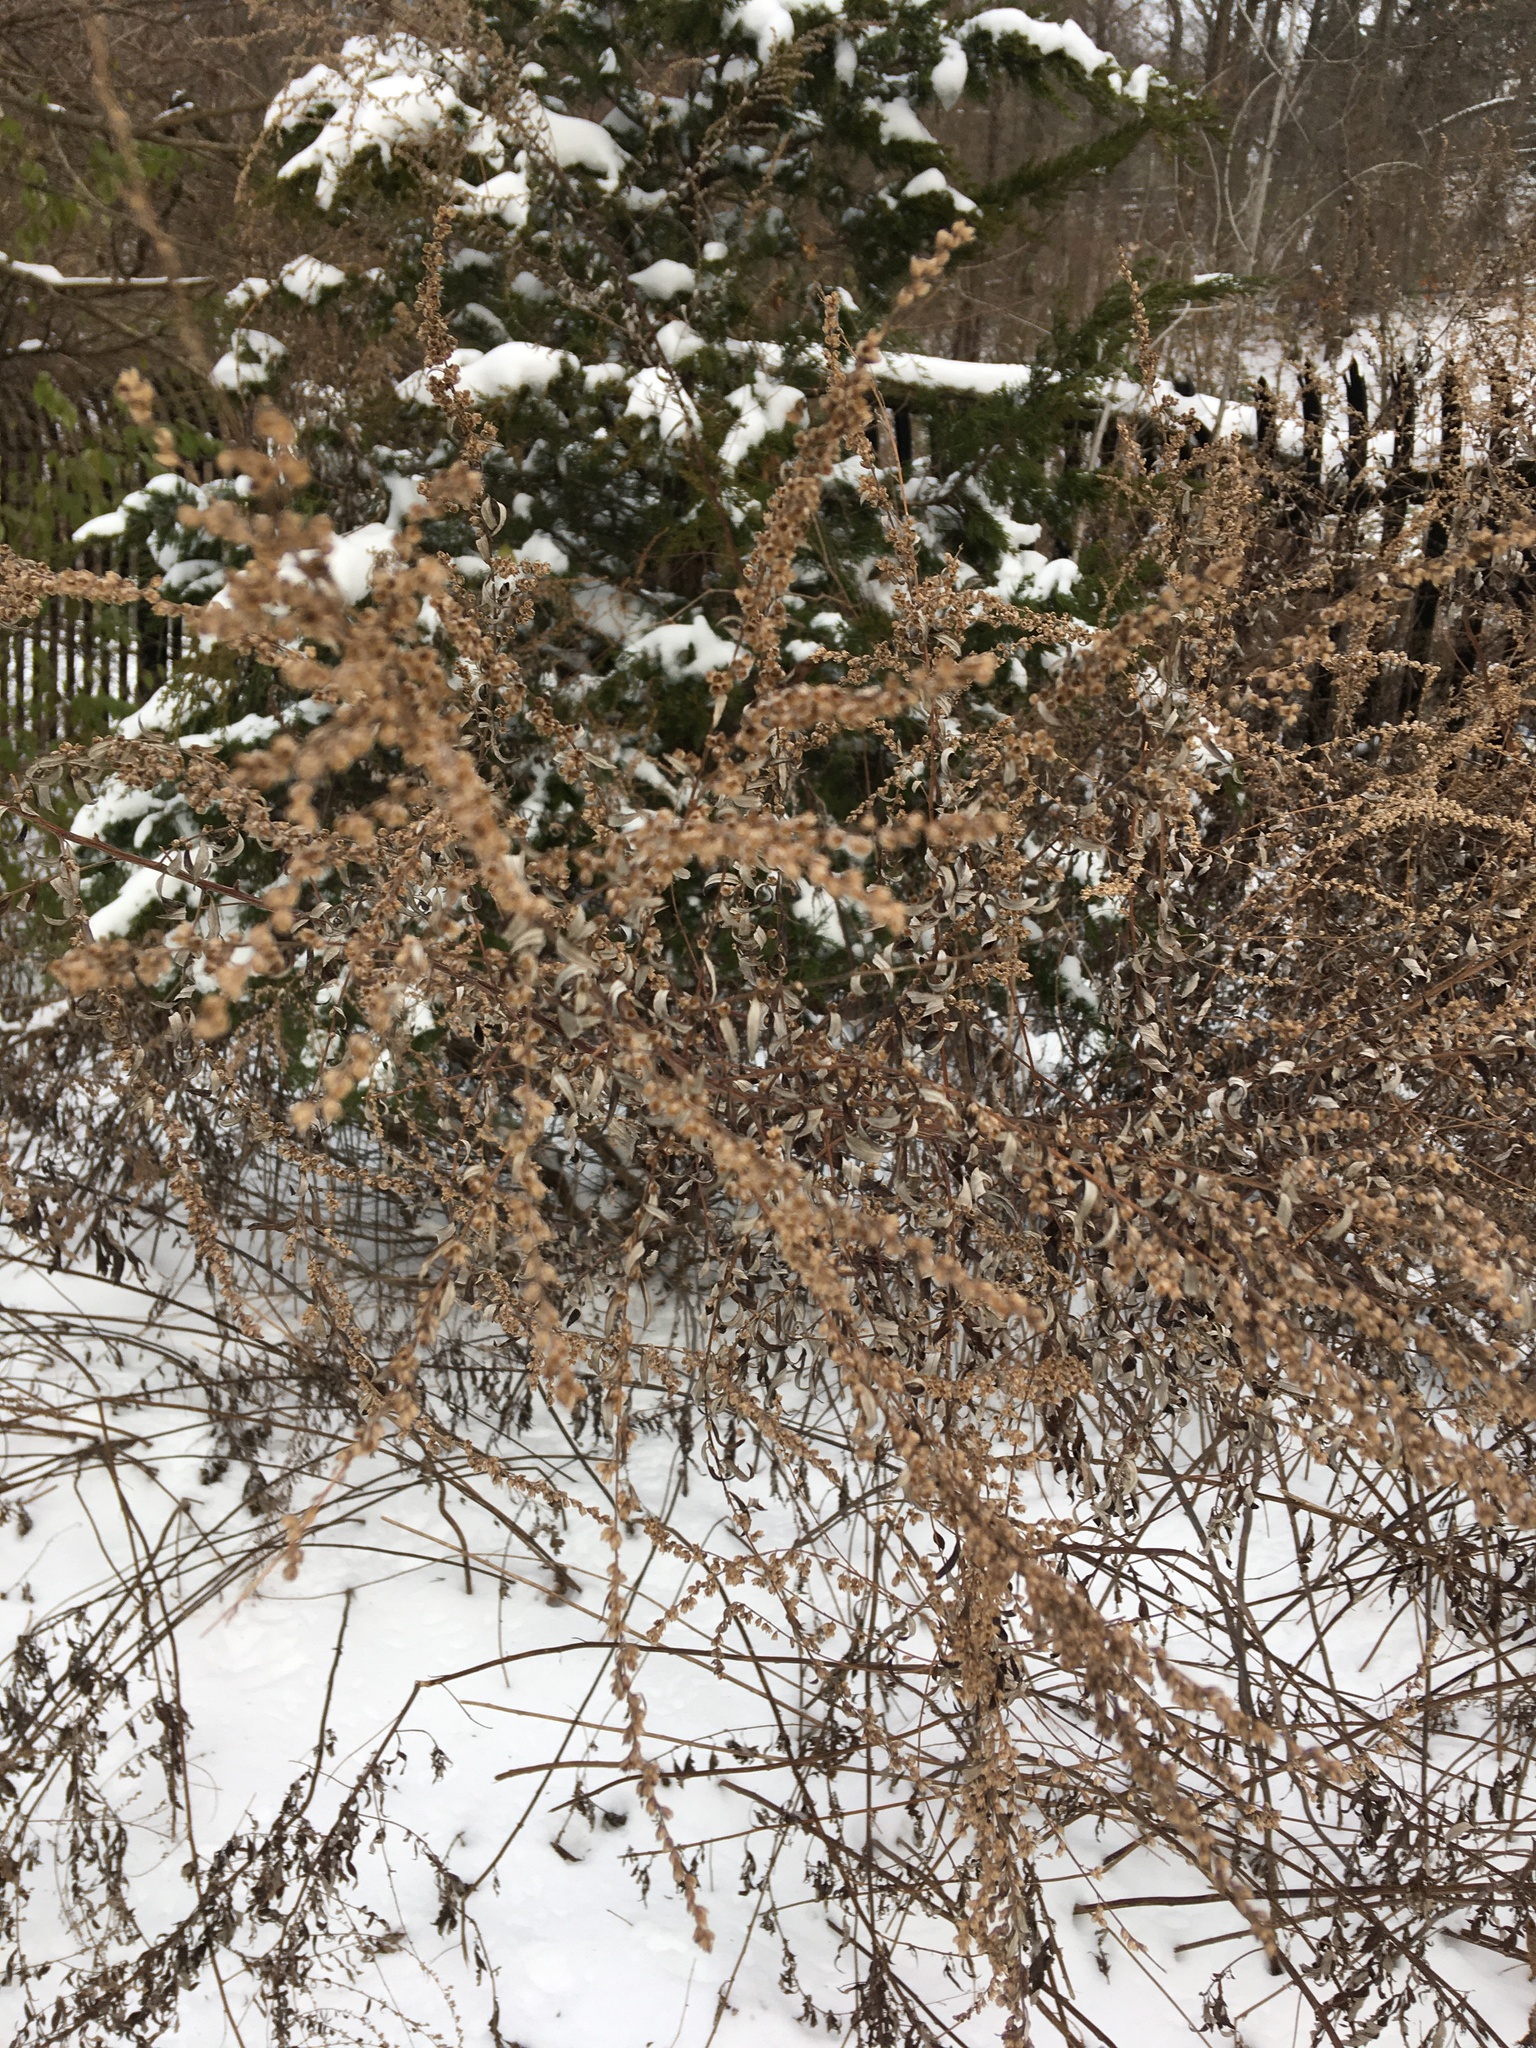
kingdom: Plantae
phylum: Tracheophyta
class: Magnoliopsida
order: Asterales
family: Asteraceae
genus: Artemisia
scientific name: Artemisia vulgaris
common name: Mugwort
